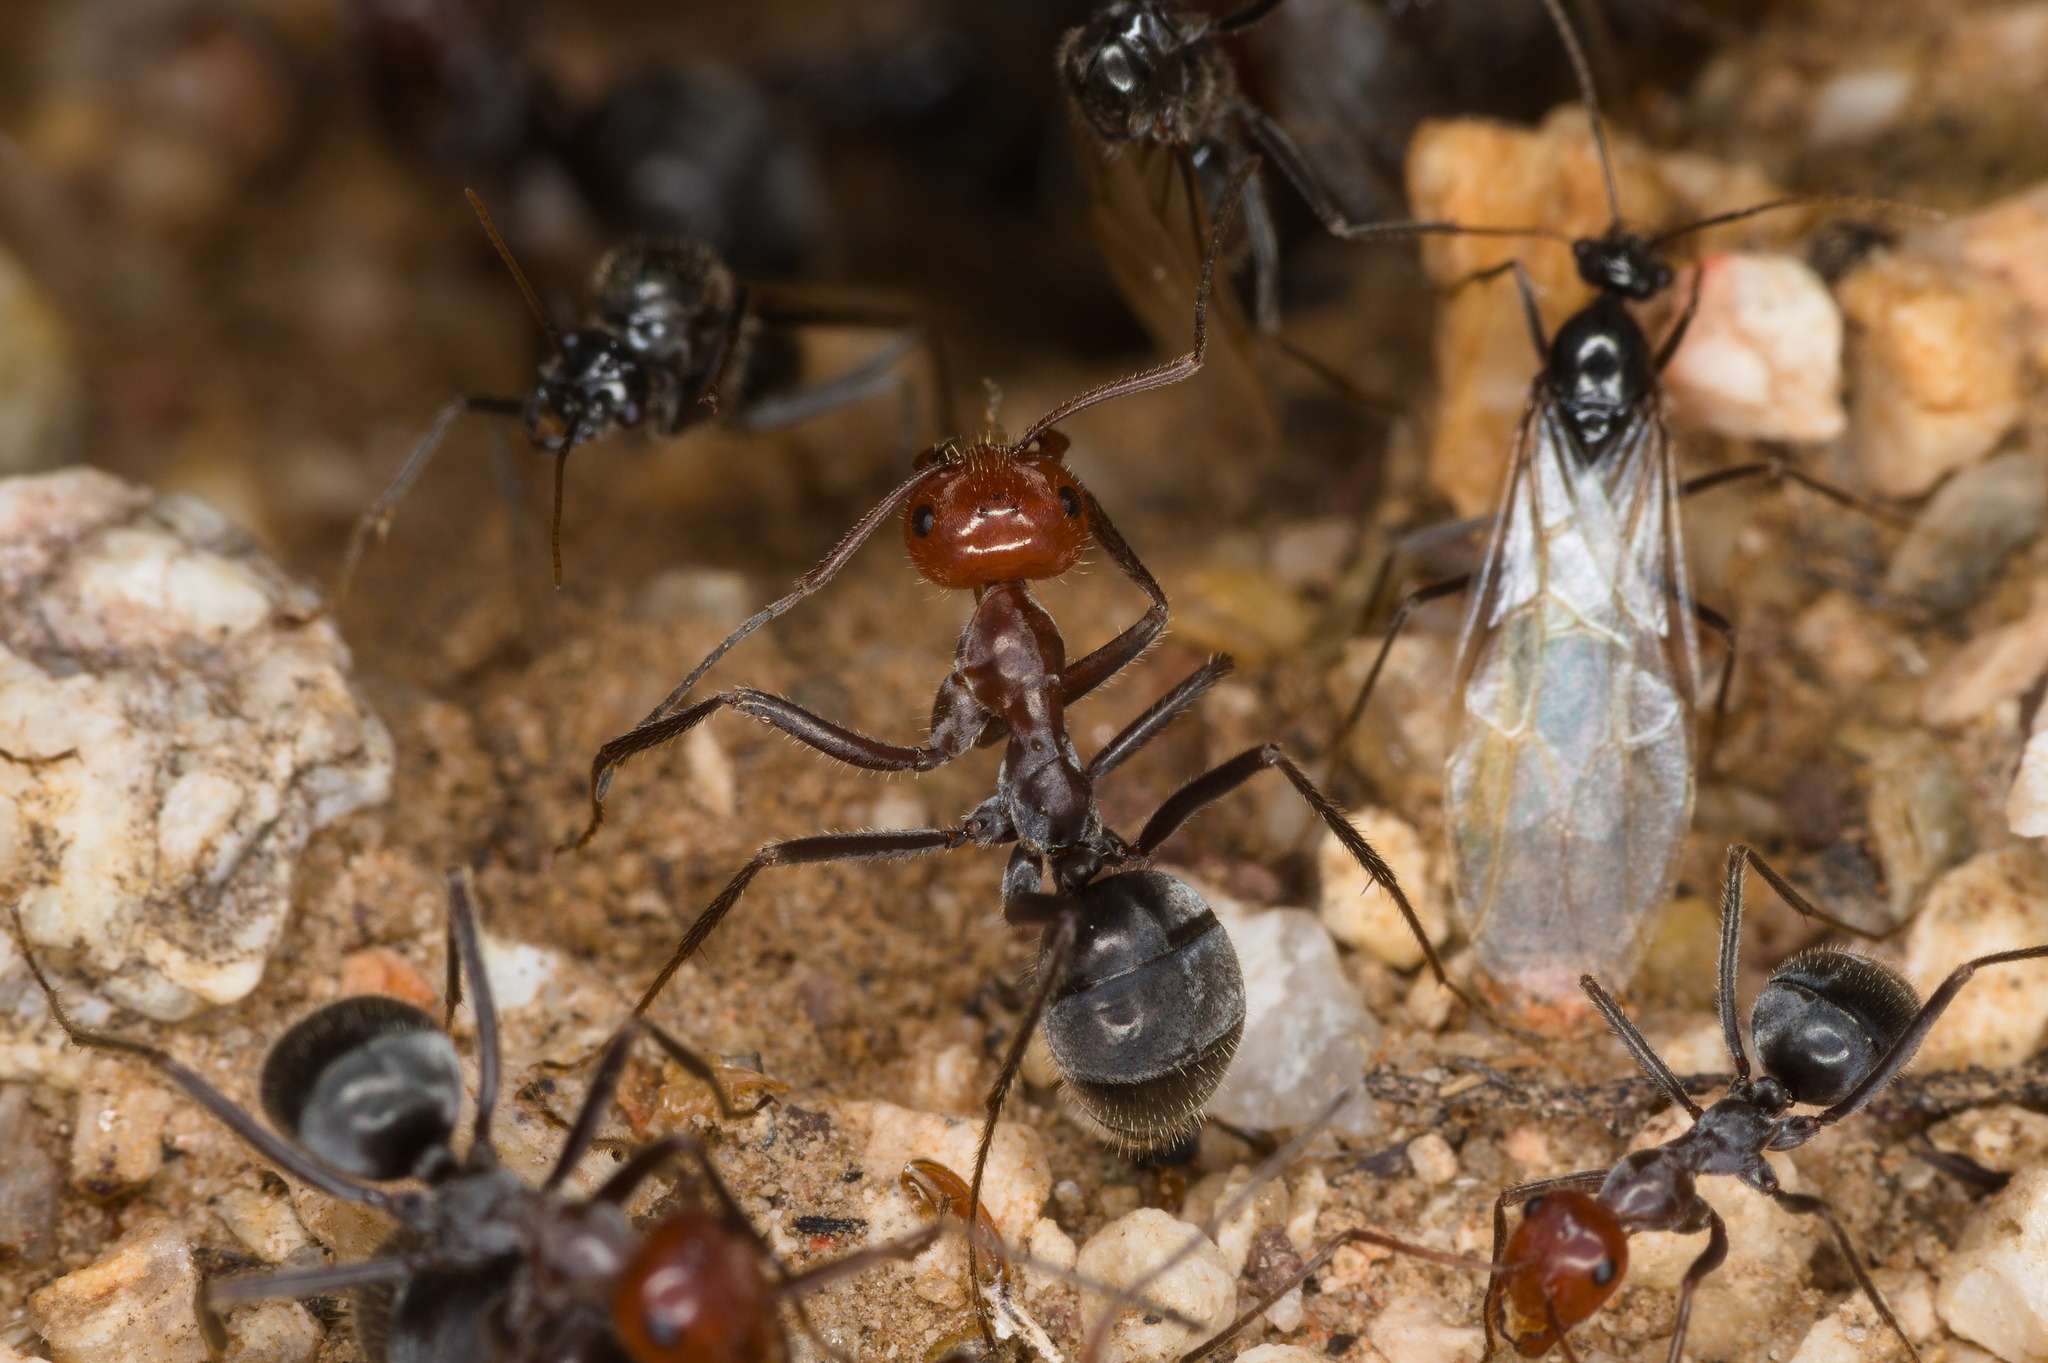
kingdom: Animalia
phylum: Arthropoda
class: Insecta
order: Hymenoptera
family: Formicidae
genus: Myrmecocystus
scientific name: Myrmecocystus placodops
